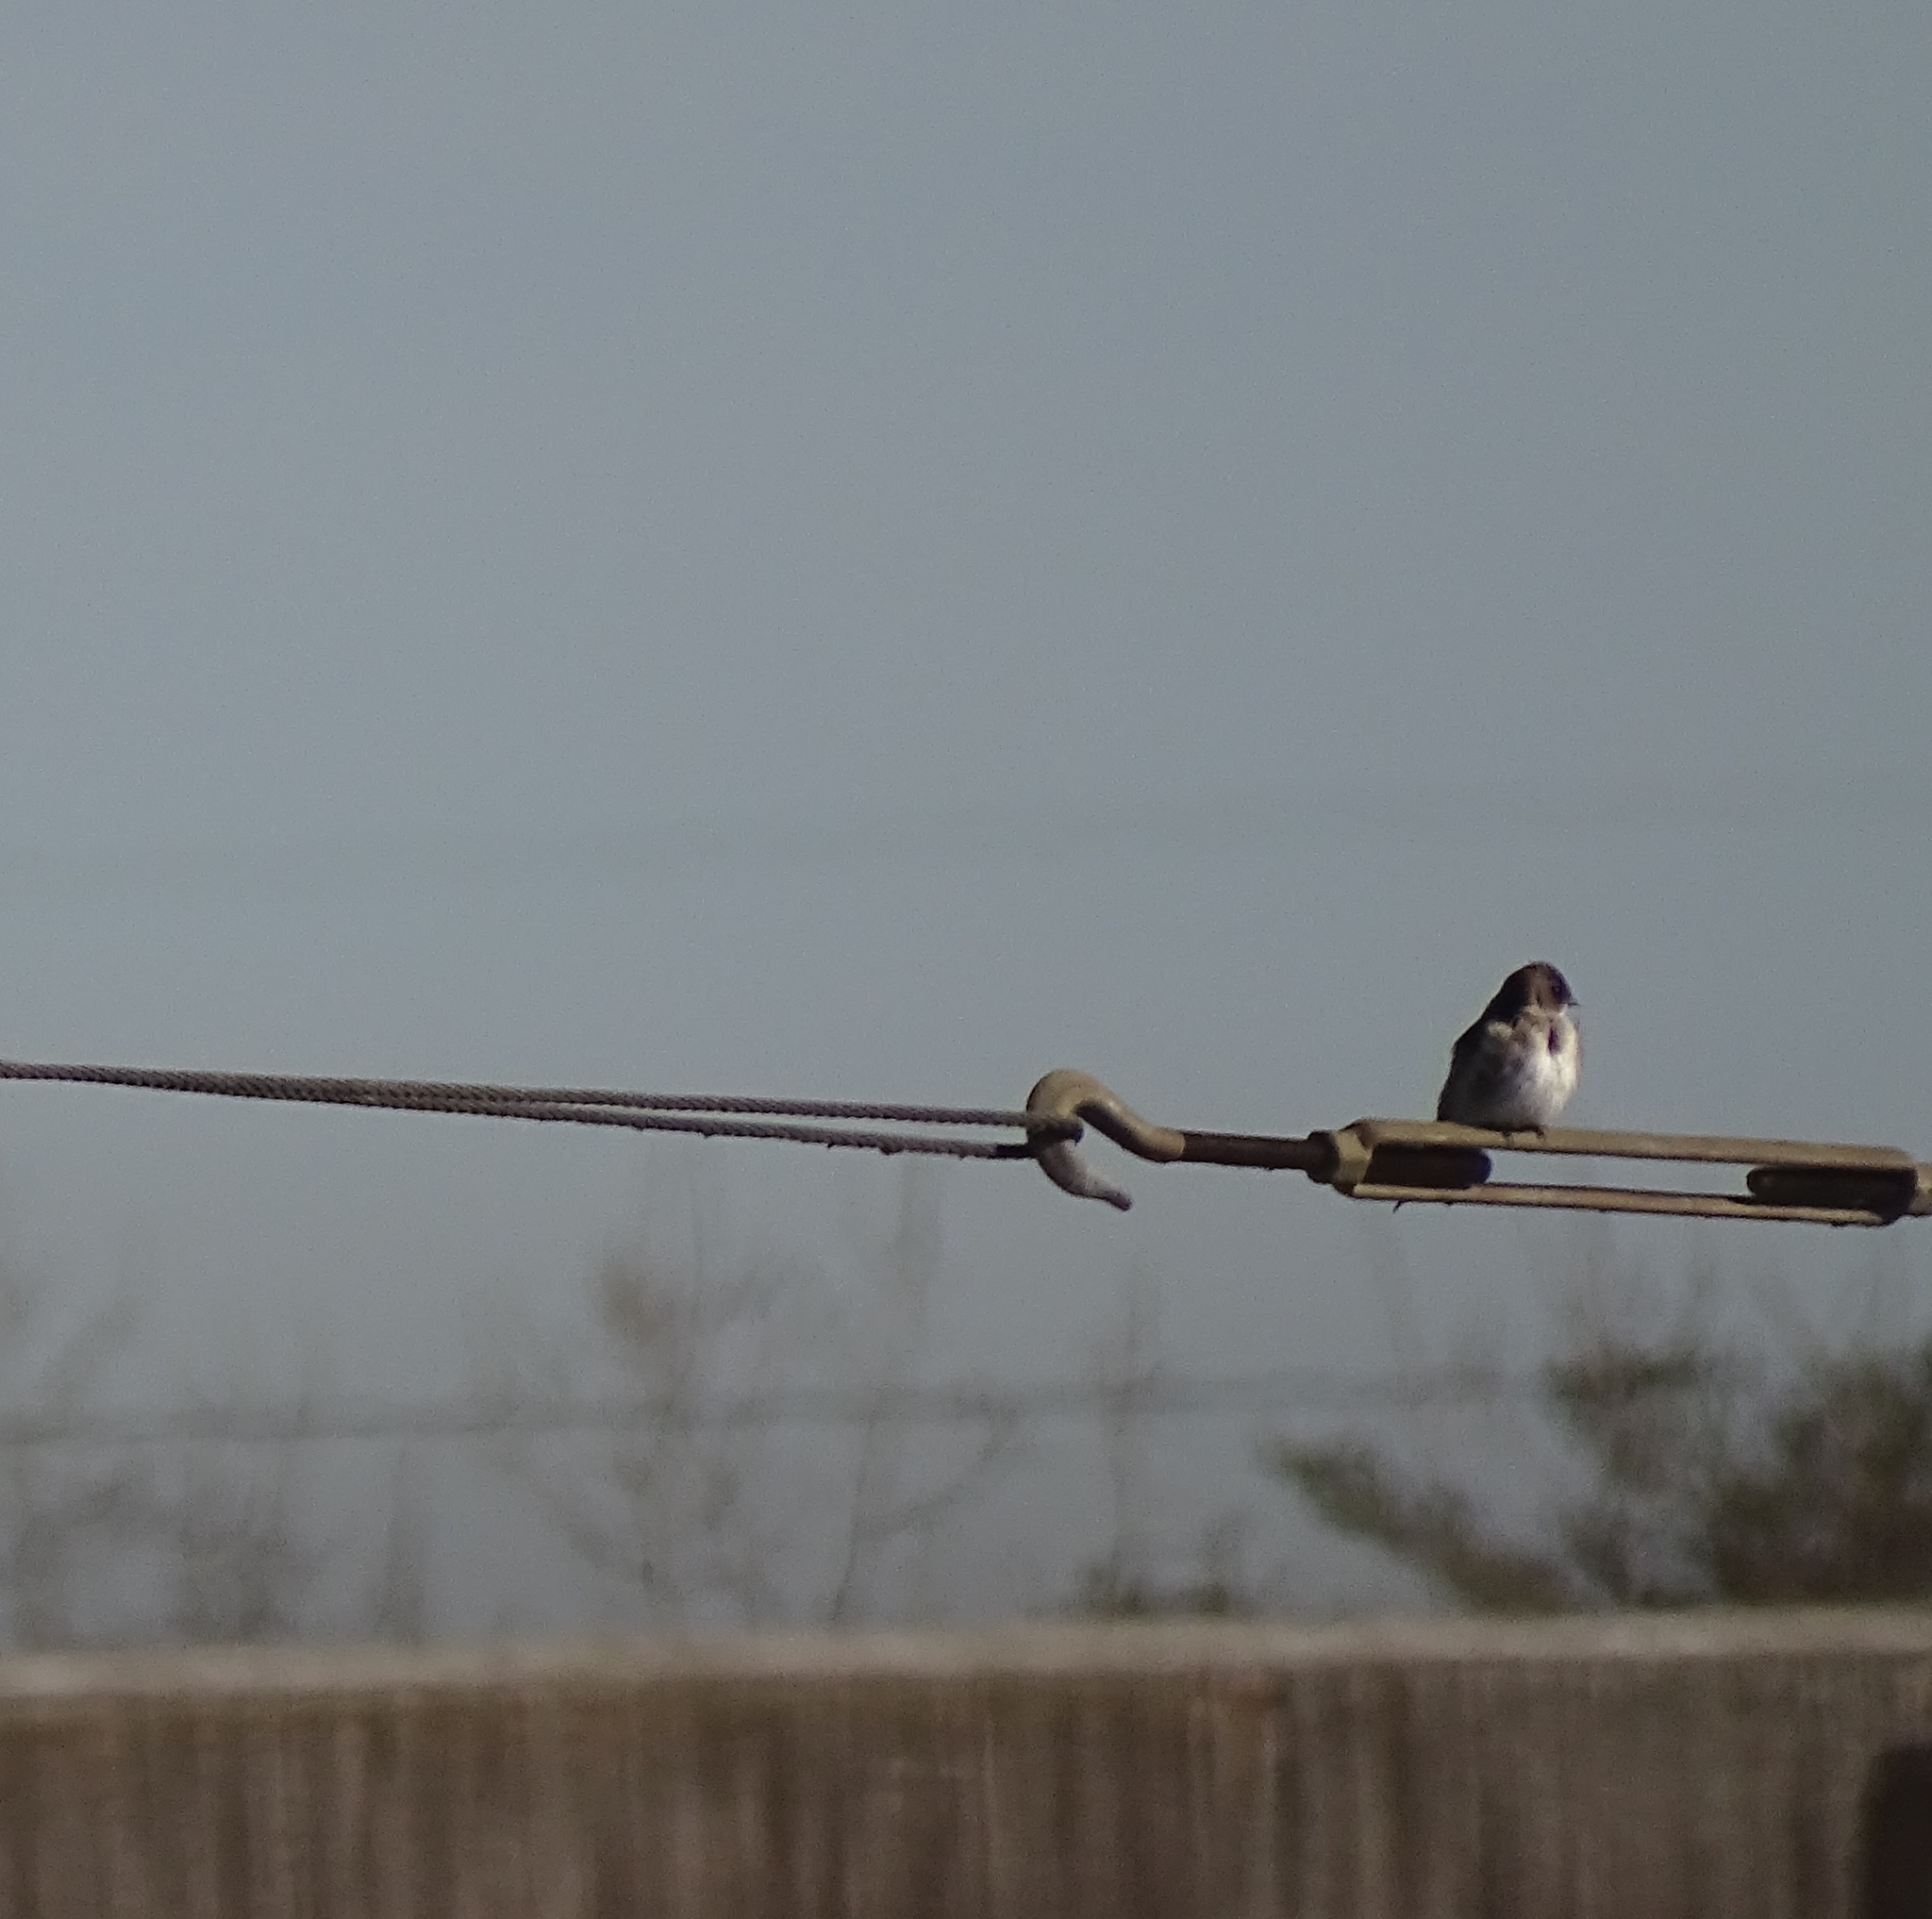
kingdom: Animalia
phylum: Chordata
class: Aves
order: Passeriformes
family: Hirundinidae
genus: Stelgidopteryx
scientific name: Stelgidopteryx serripennis
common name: Northern rough-winged swallow
